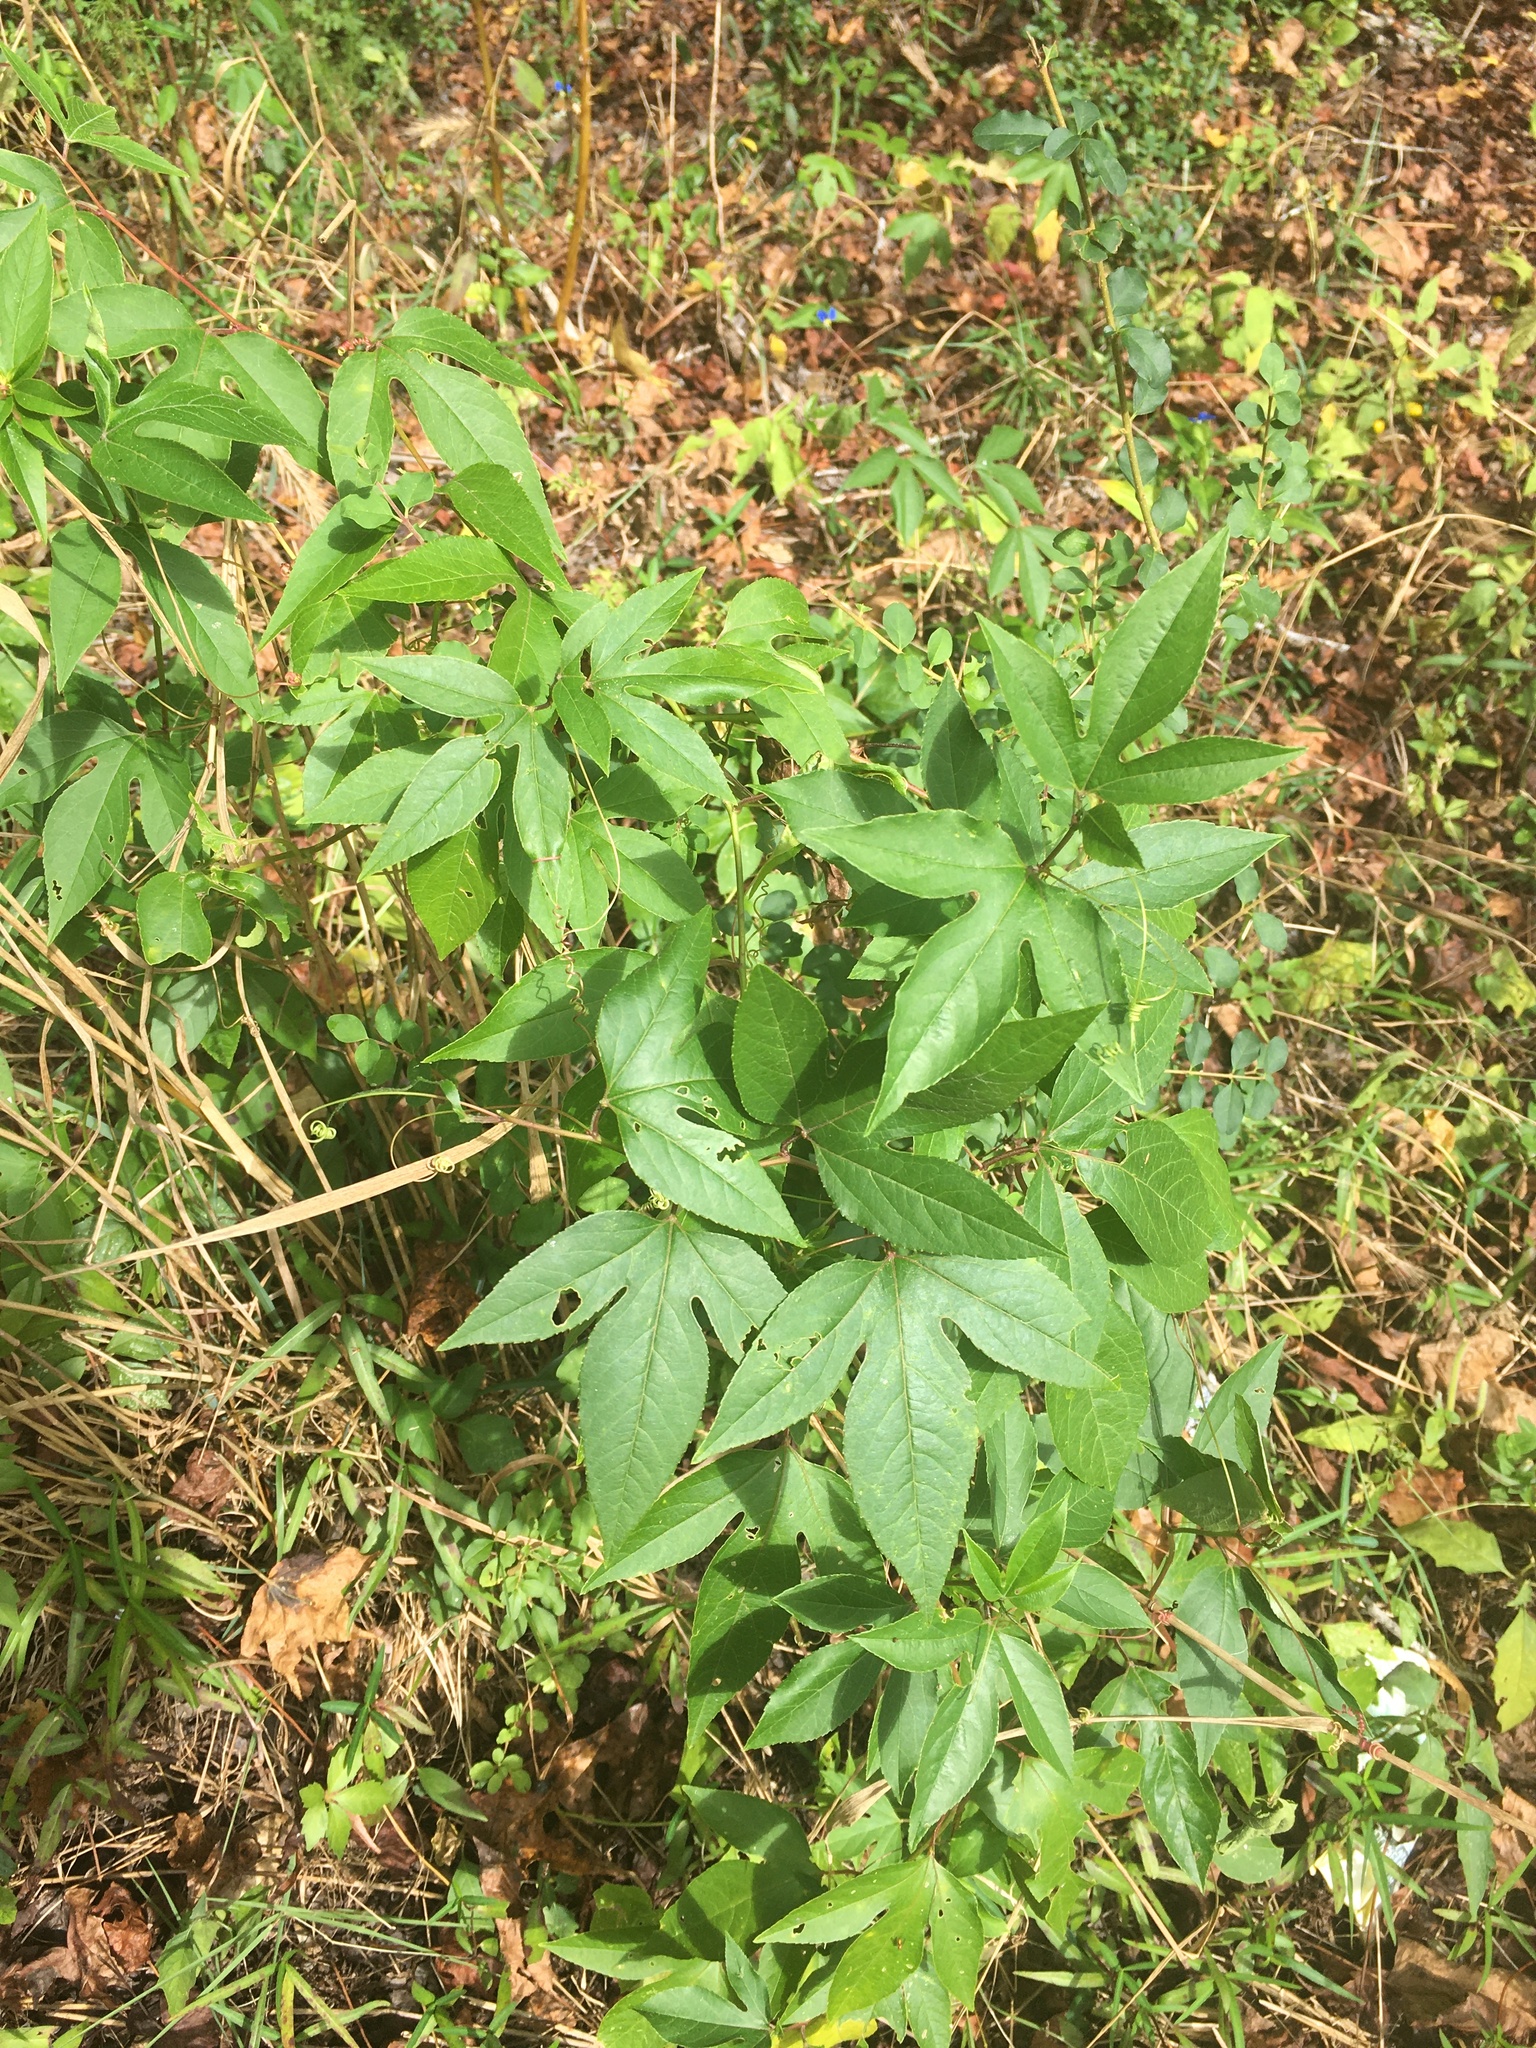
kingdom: Plantae
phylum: Tracheophyta
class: Magnoliopsida
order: Malpighiales
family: Passifloraceae
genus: Passiflora
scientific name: Passiflora incarnata
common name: Apricot-vine
